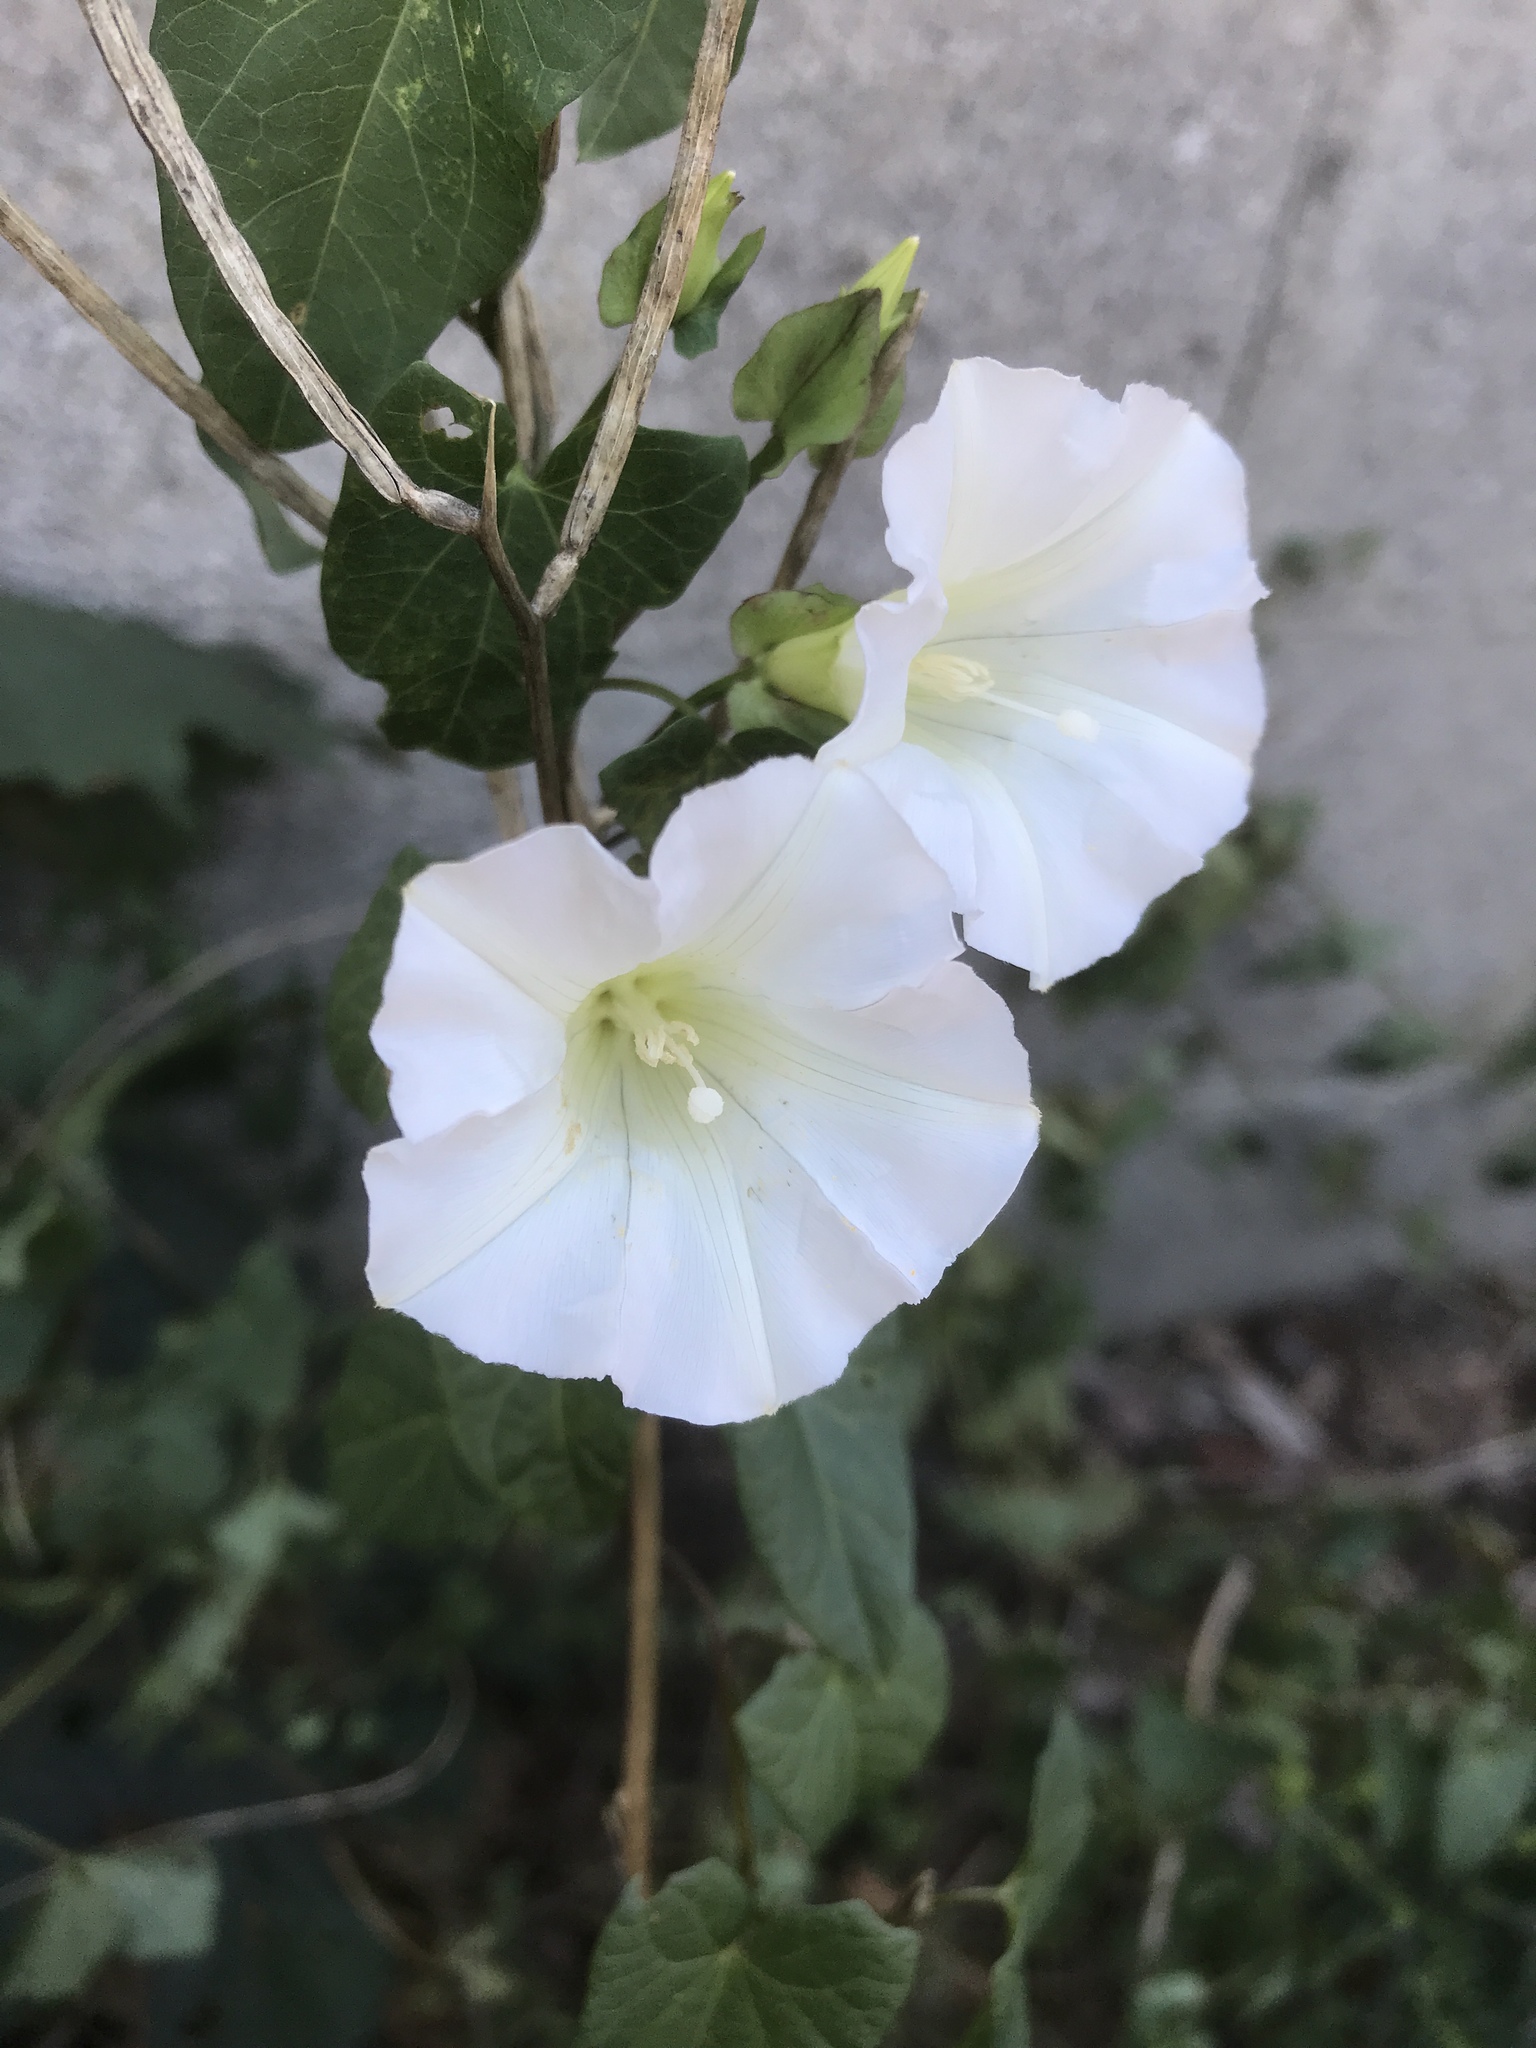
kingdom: Plantae
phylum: Tracheophyta
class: Magnoliopsida
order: Solanales
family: Convolvulaceae
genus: Calystegia
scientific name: Calystegia sepium
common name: Hedge bindweed
